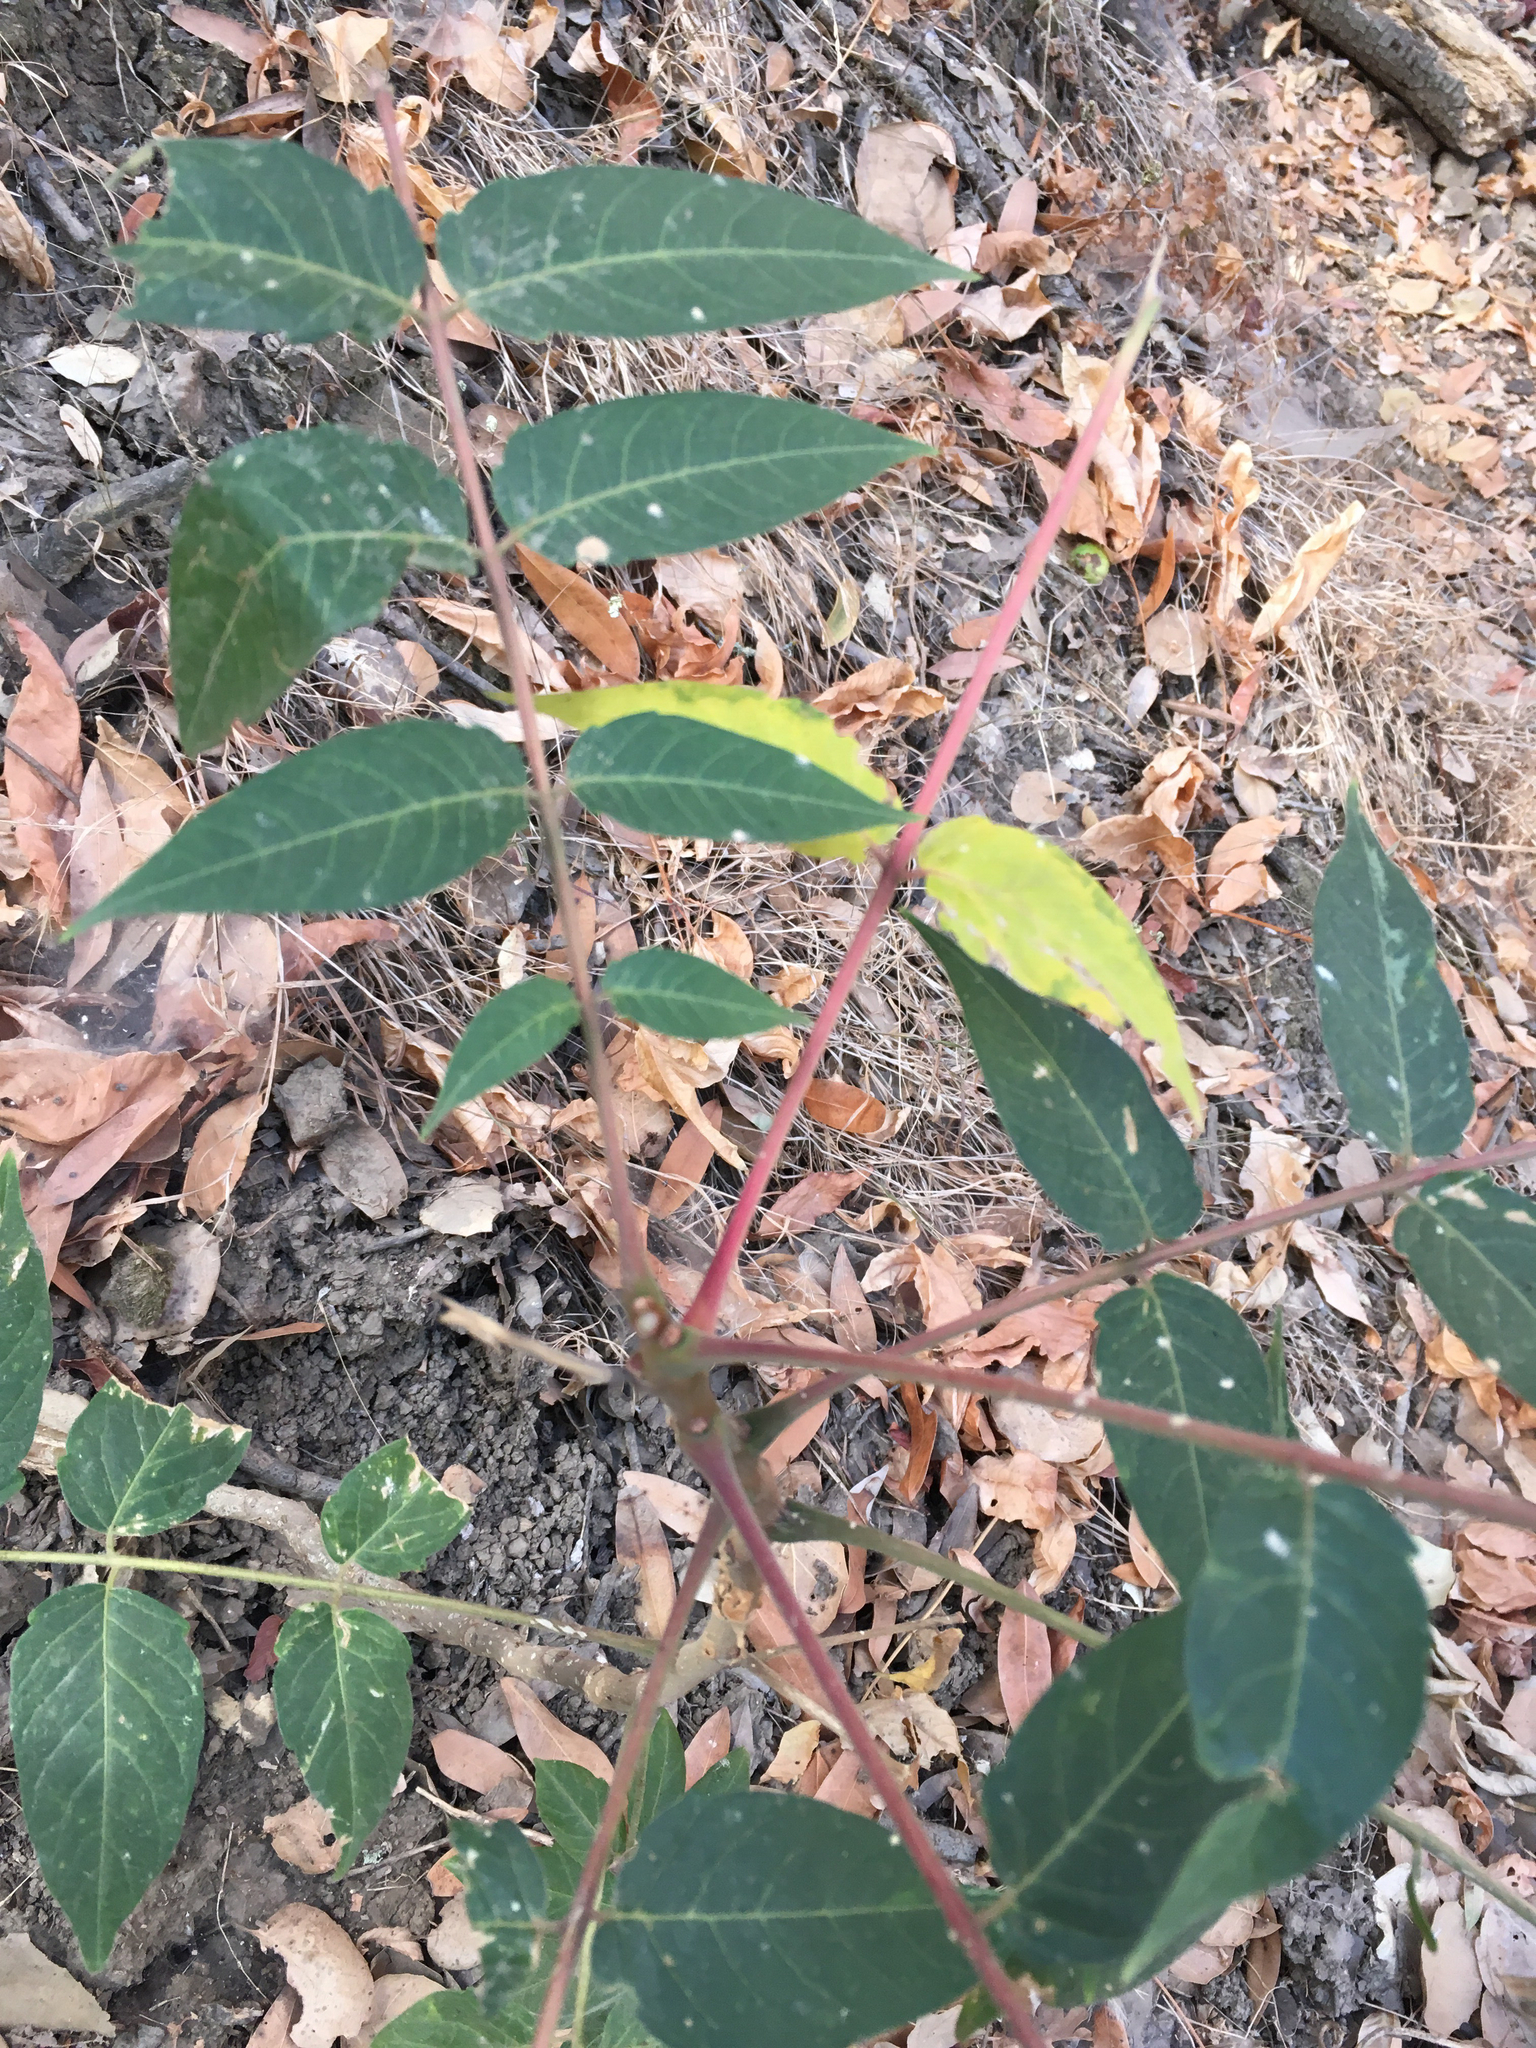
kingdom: Plantae
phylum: Tracheophyta
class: Magnoliopsida
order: Sapindales
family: Simaroubaceae
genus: Ailanthus
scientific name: Ailanthus altissima
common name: Tree-of-heaven
